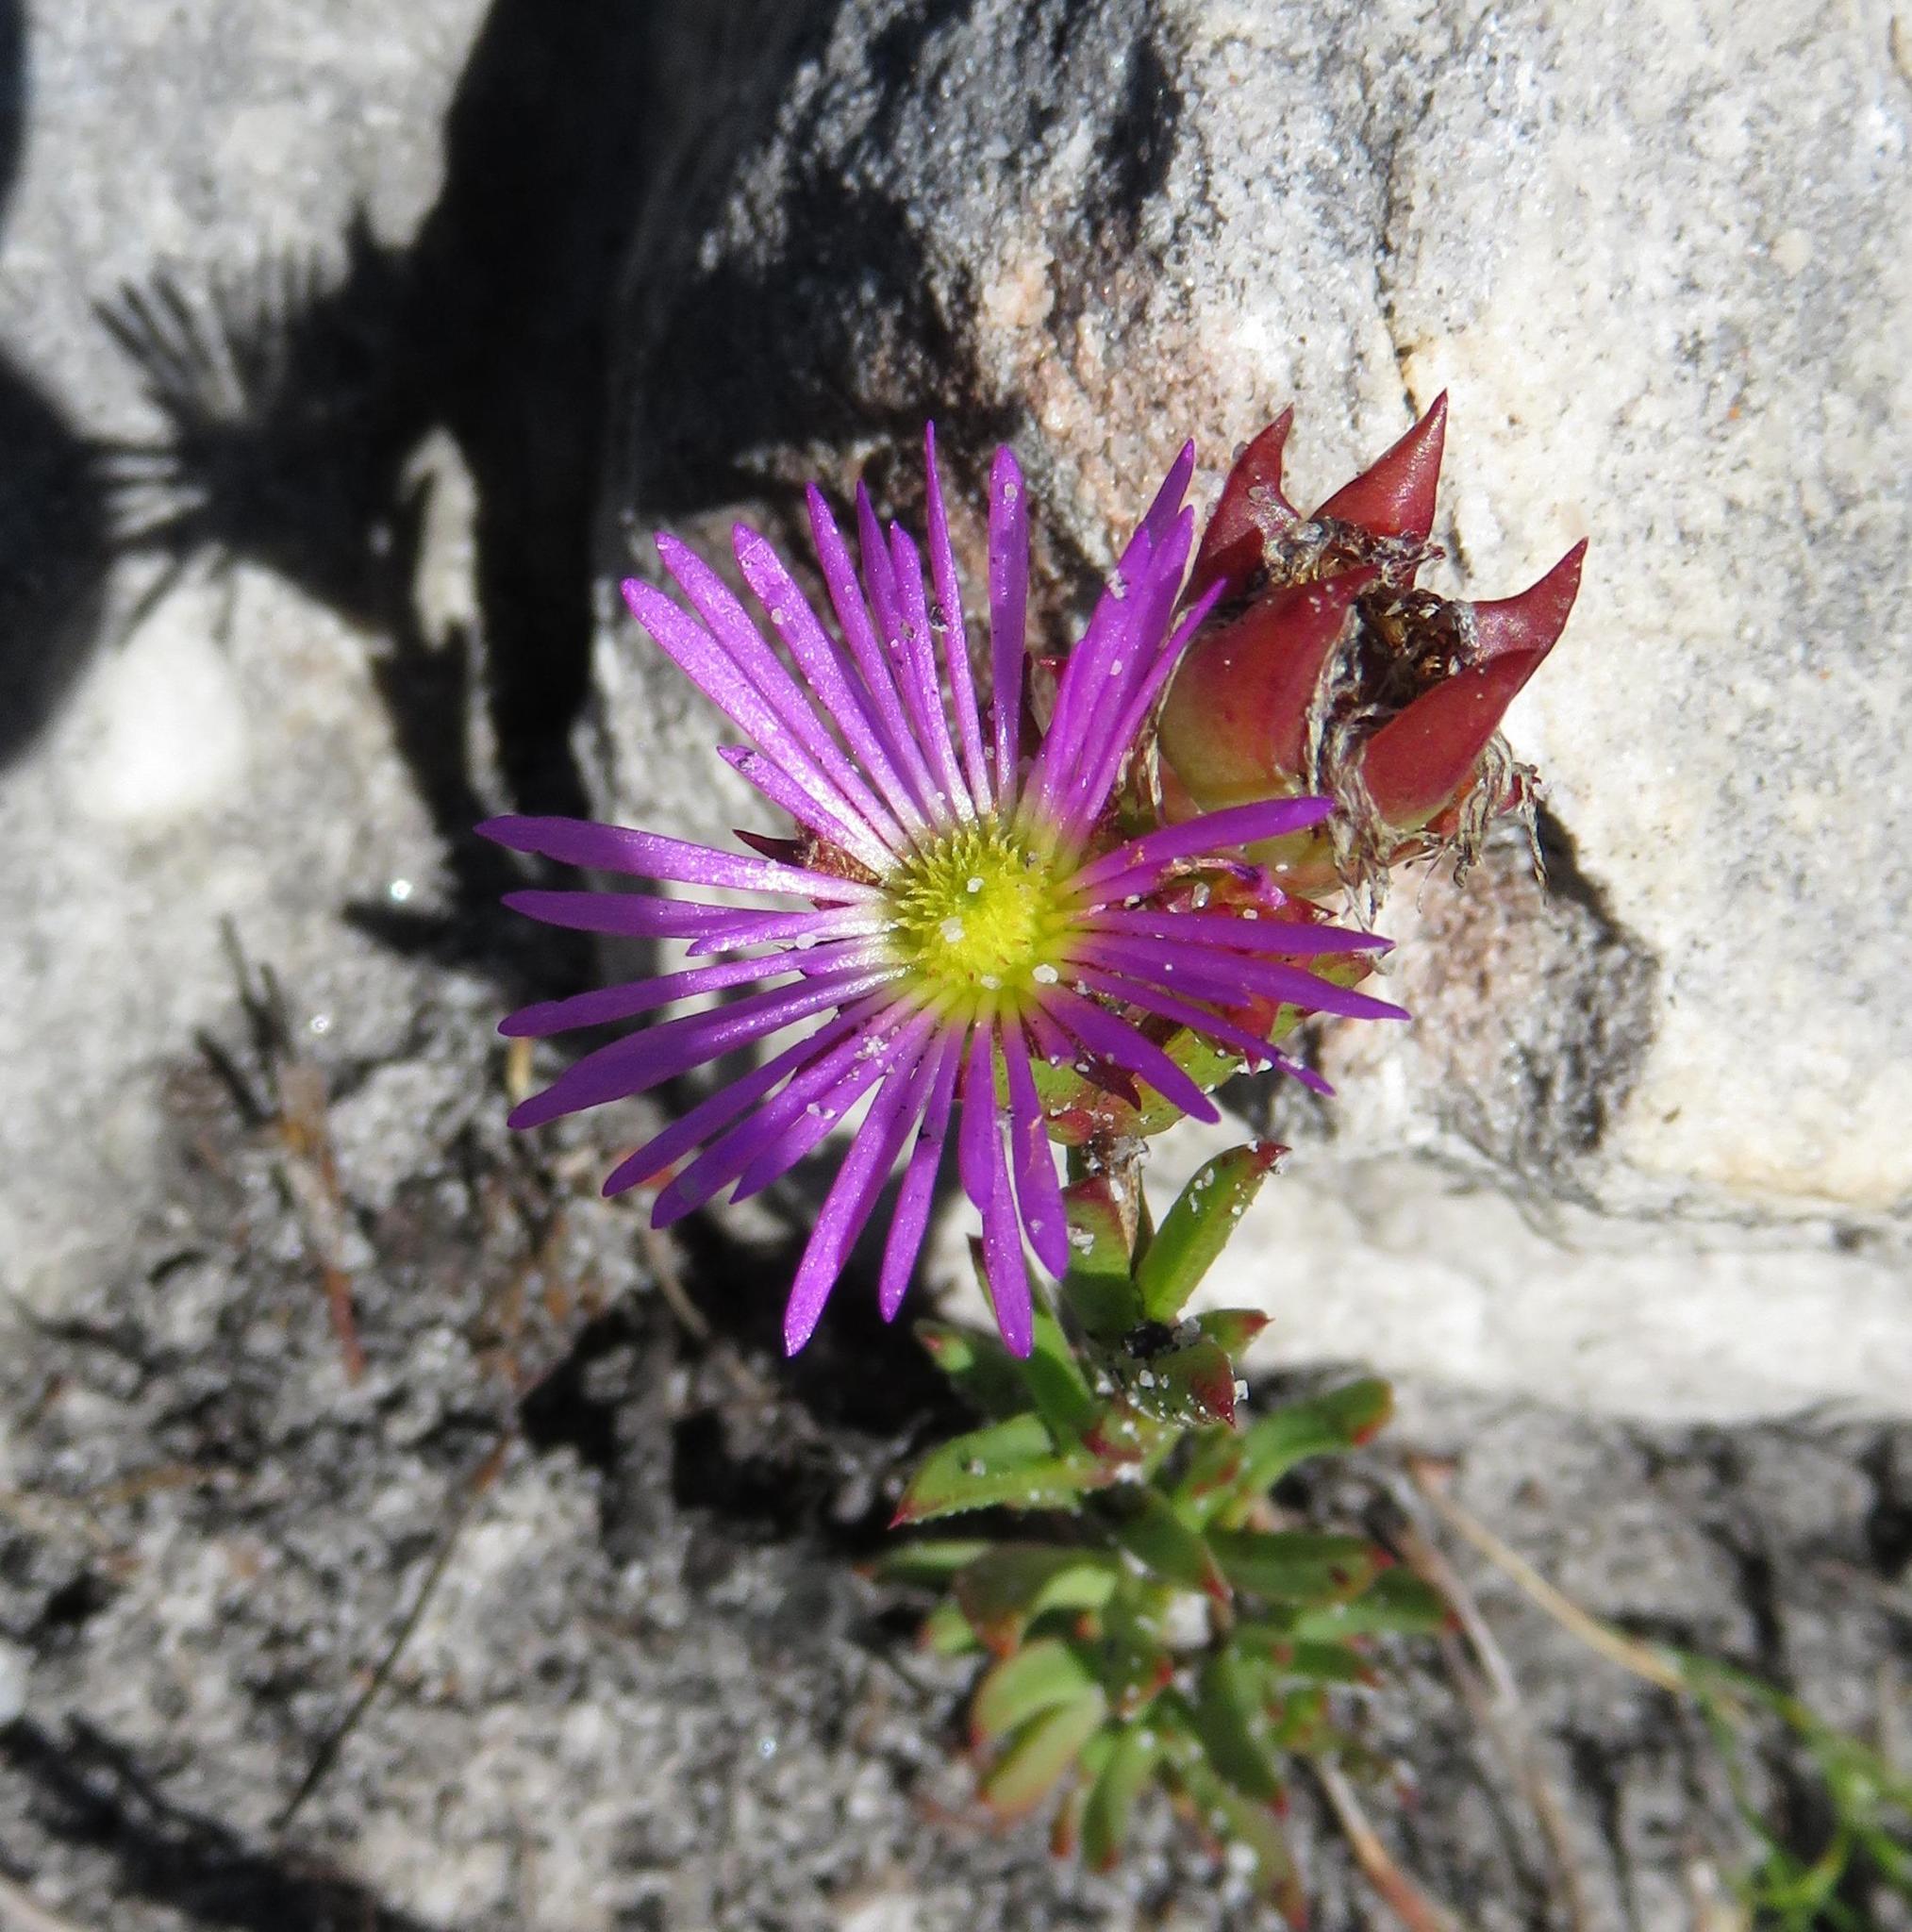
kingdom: Plantae
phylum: Tracheophyta
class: Magnoliopsida
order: Caryophyllales
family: Aizoaceae
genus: Erepsia
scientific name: Erepsia anceps
